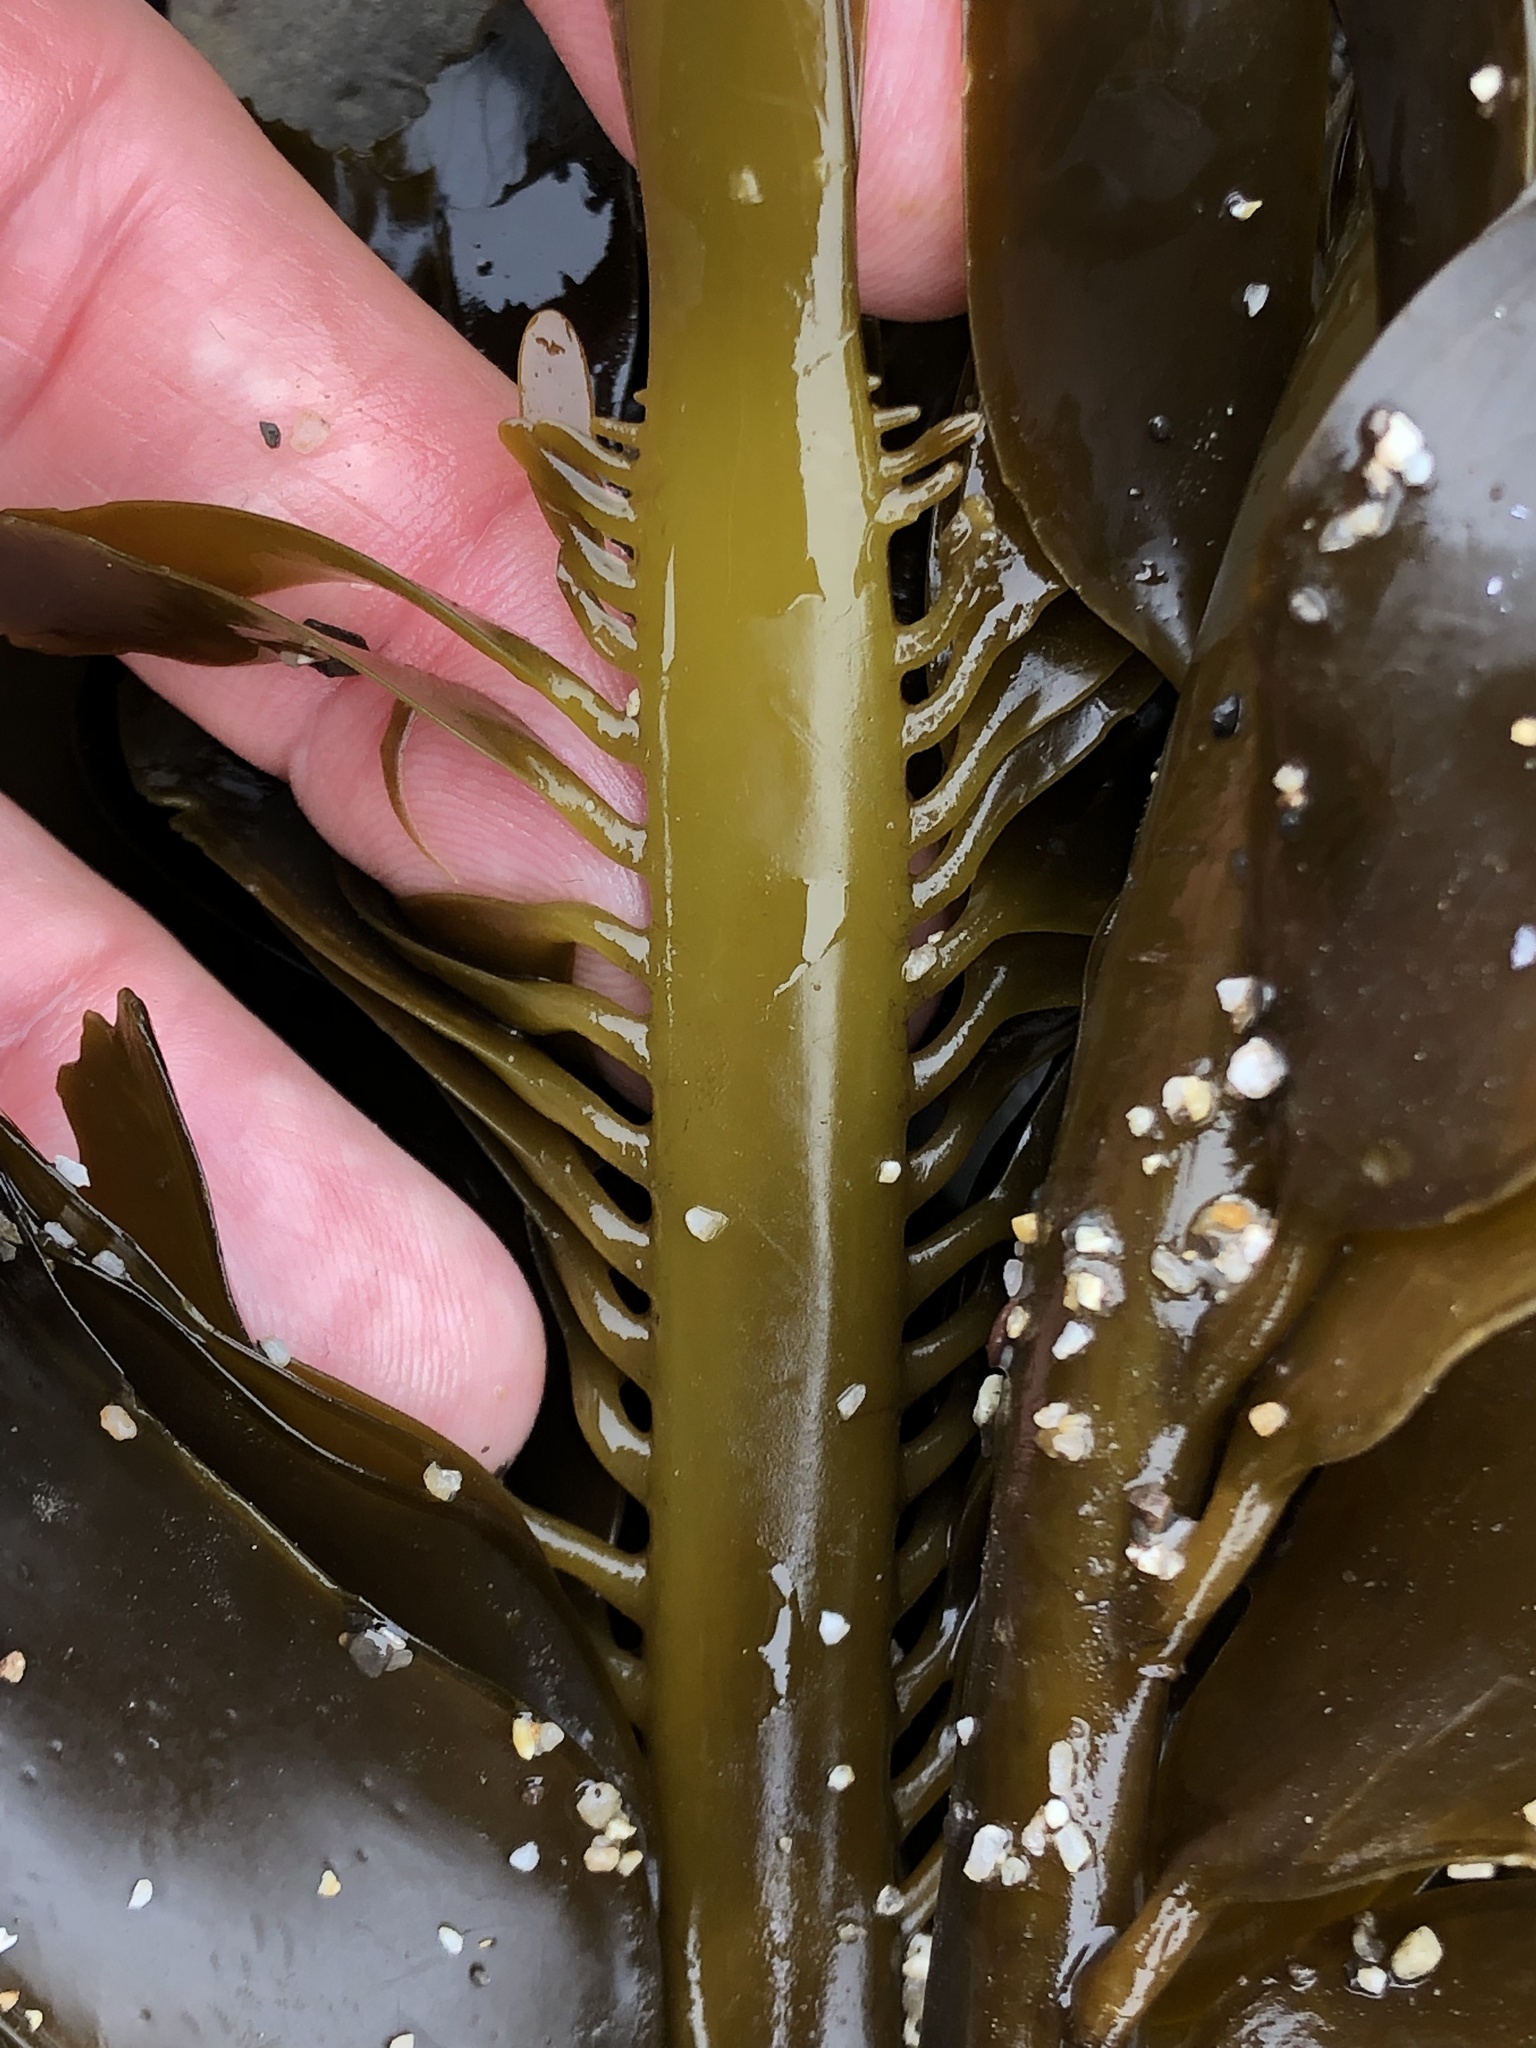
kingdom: Chromista
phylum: Ochrophyta
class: Phaeophyceae
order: Laminariales
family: Alariaceae
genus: Alaria
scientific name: Alaria marginata
